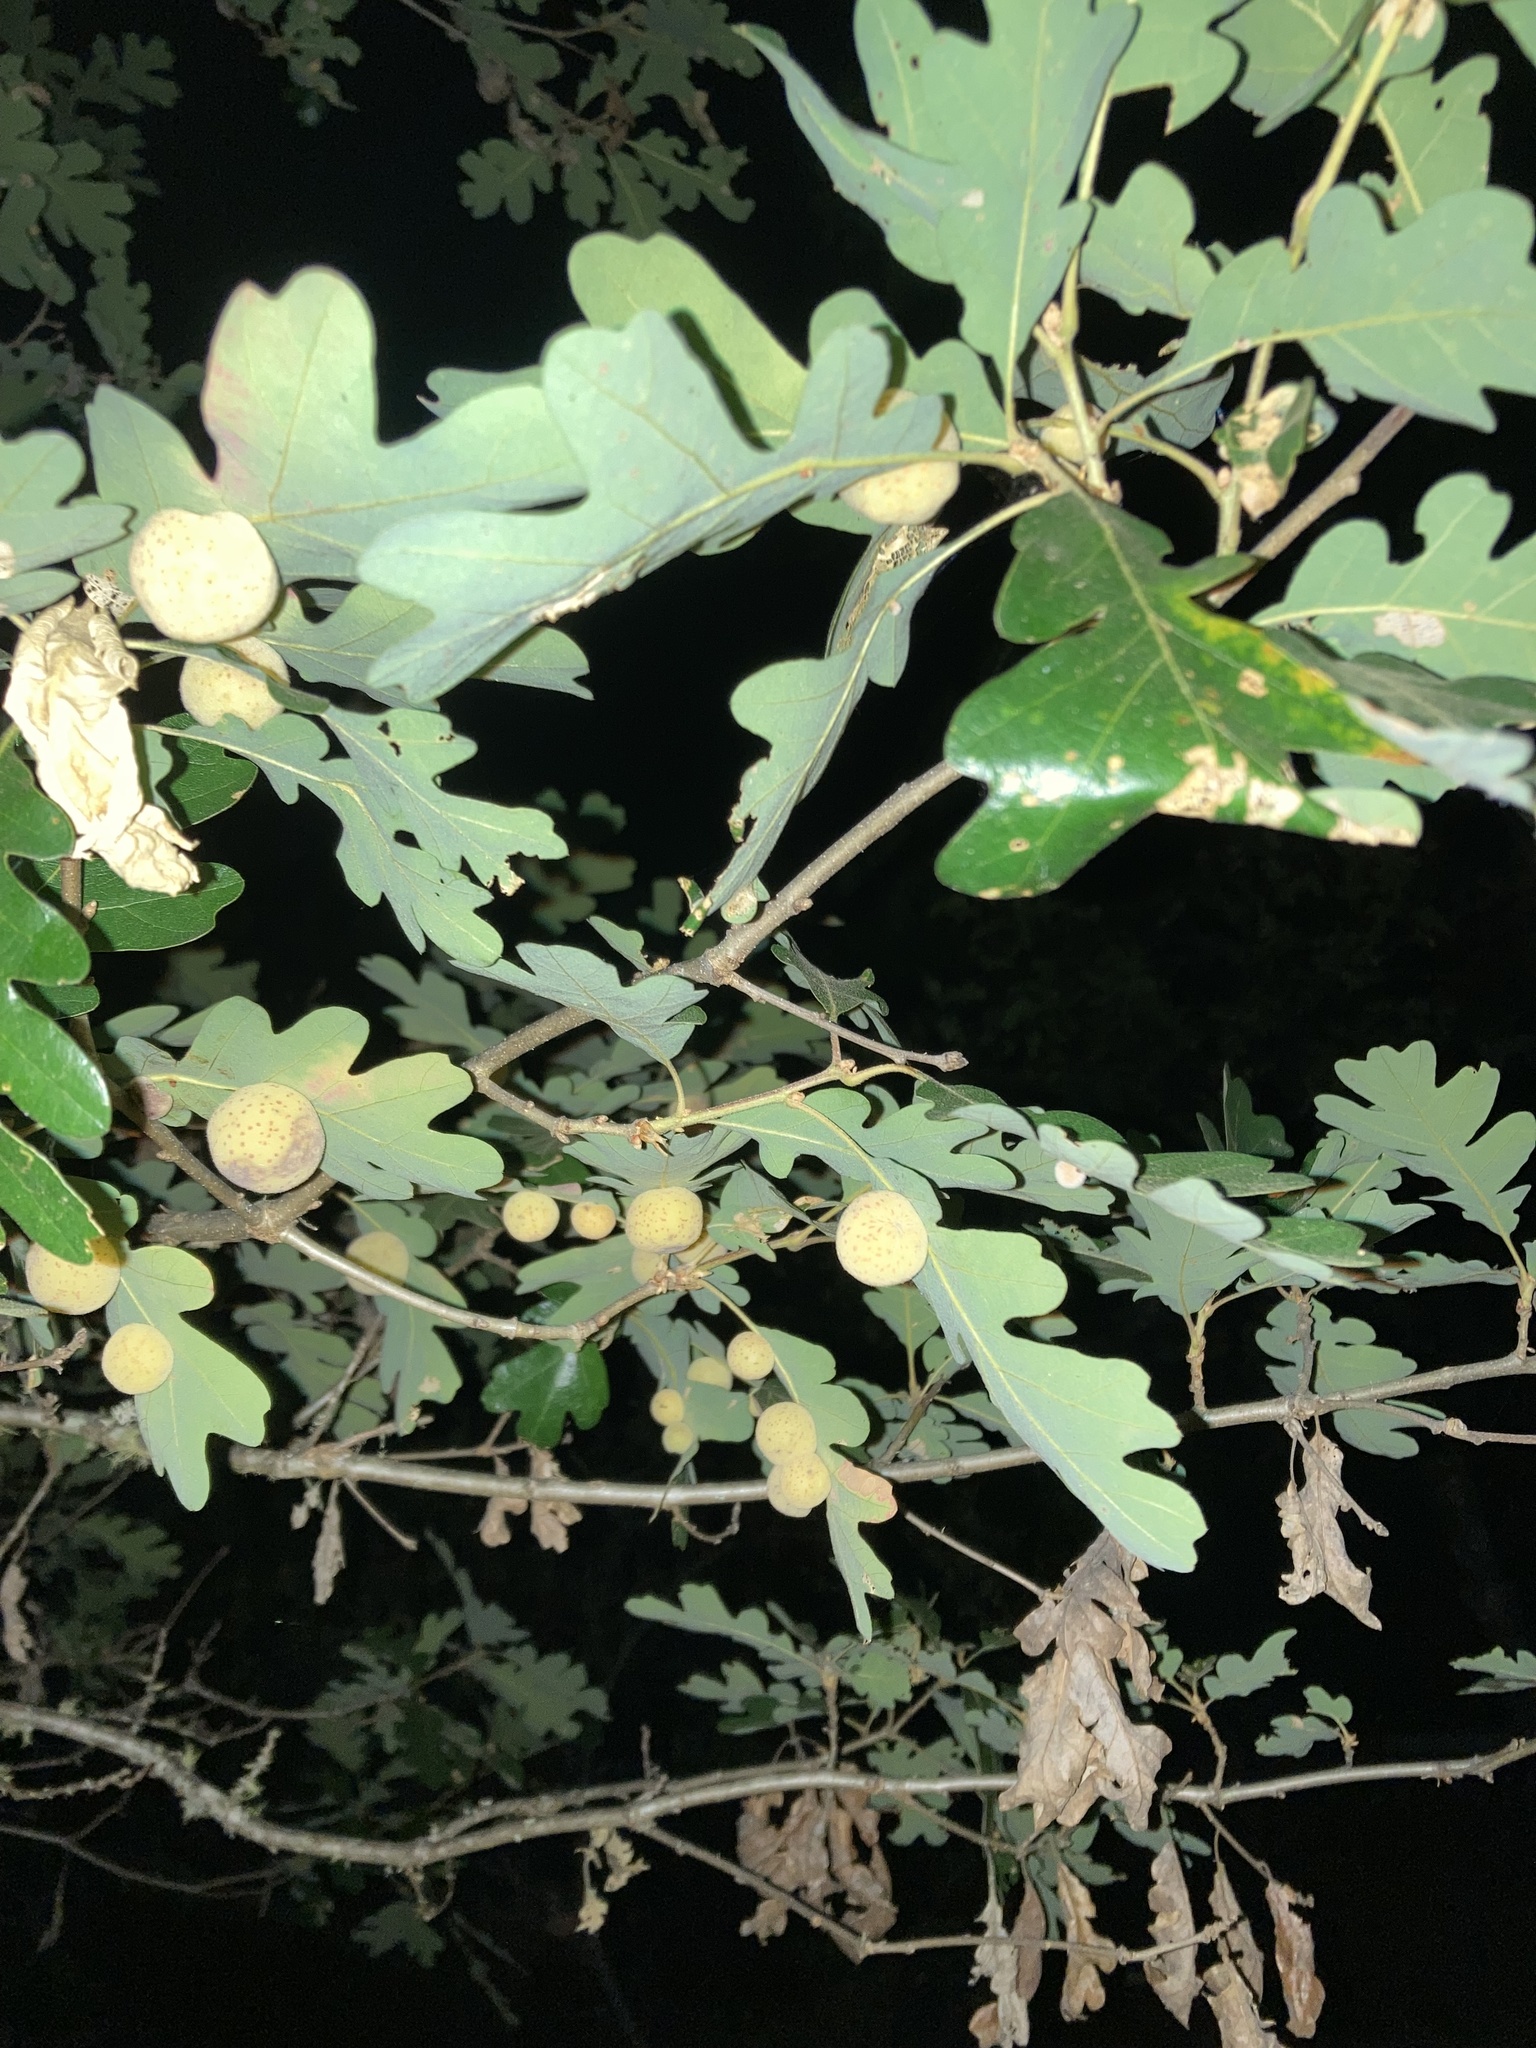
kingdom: Animalia
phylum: Arthropoda
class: Insecta
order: Hymenoptera
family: Cynipidae
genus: Cynips
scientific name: Cynips
